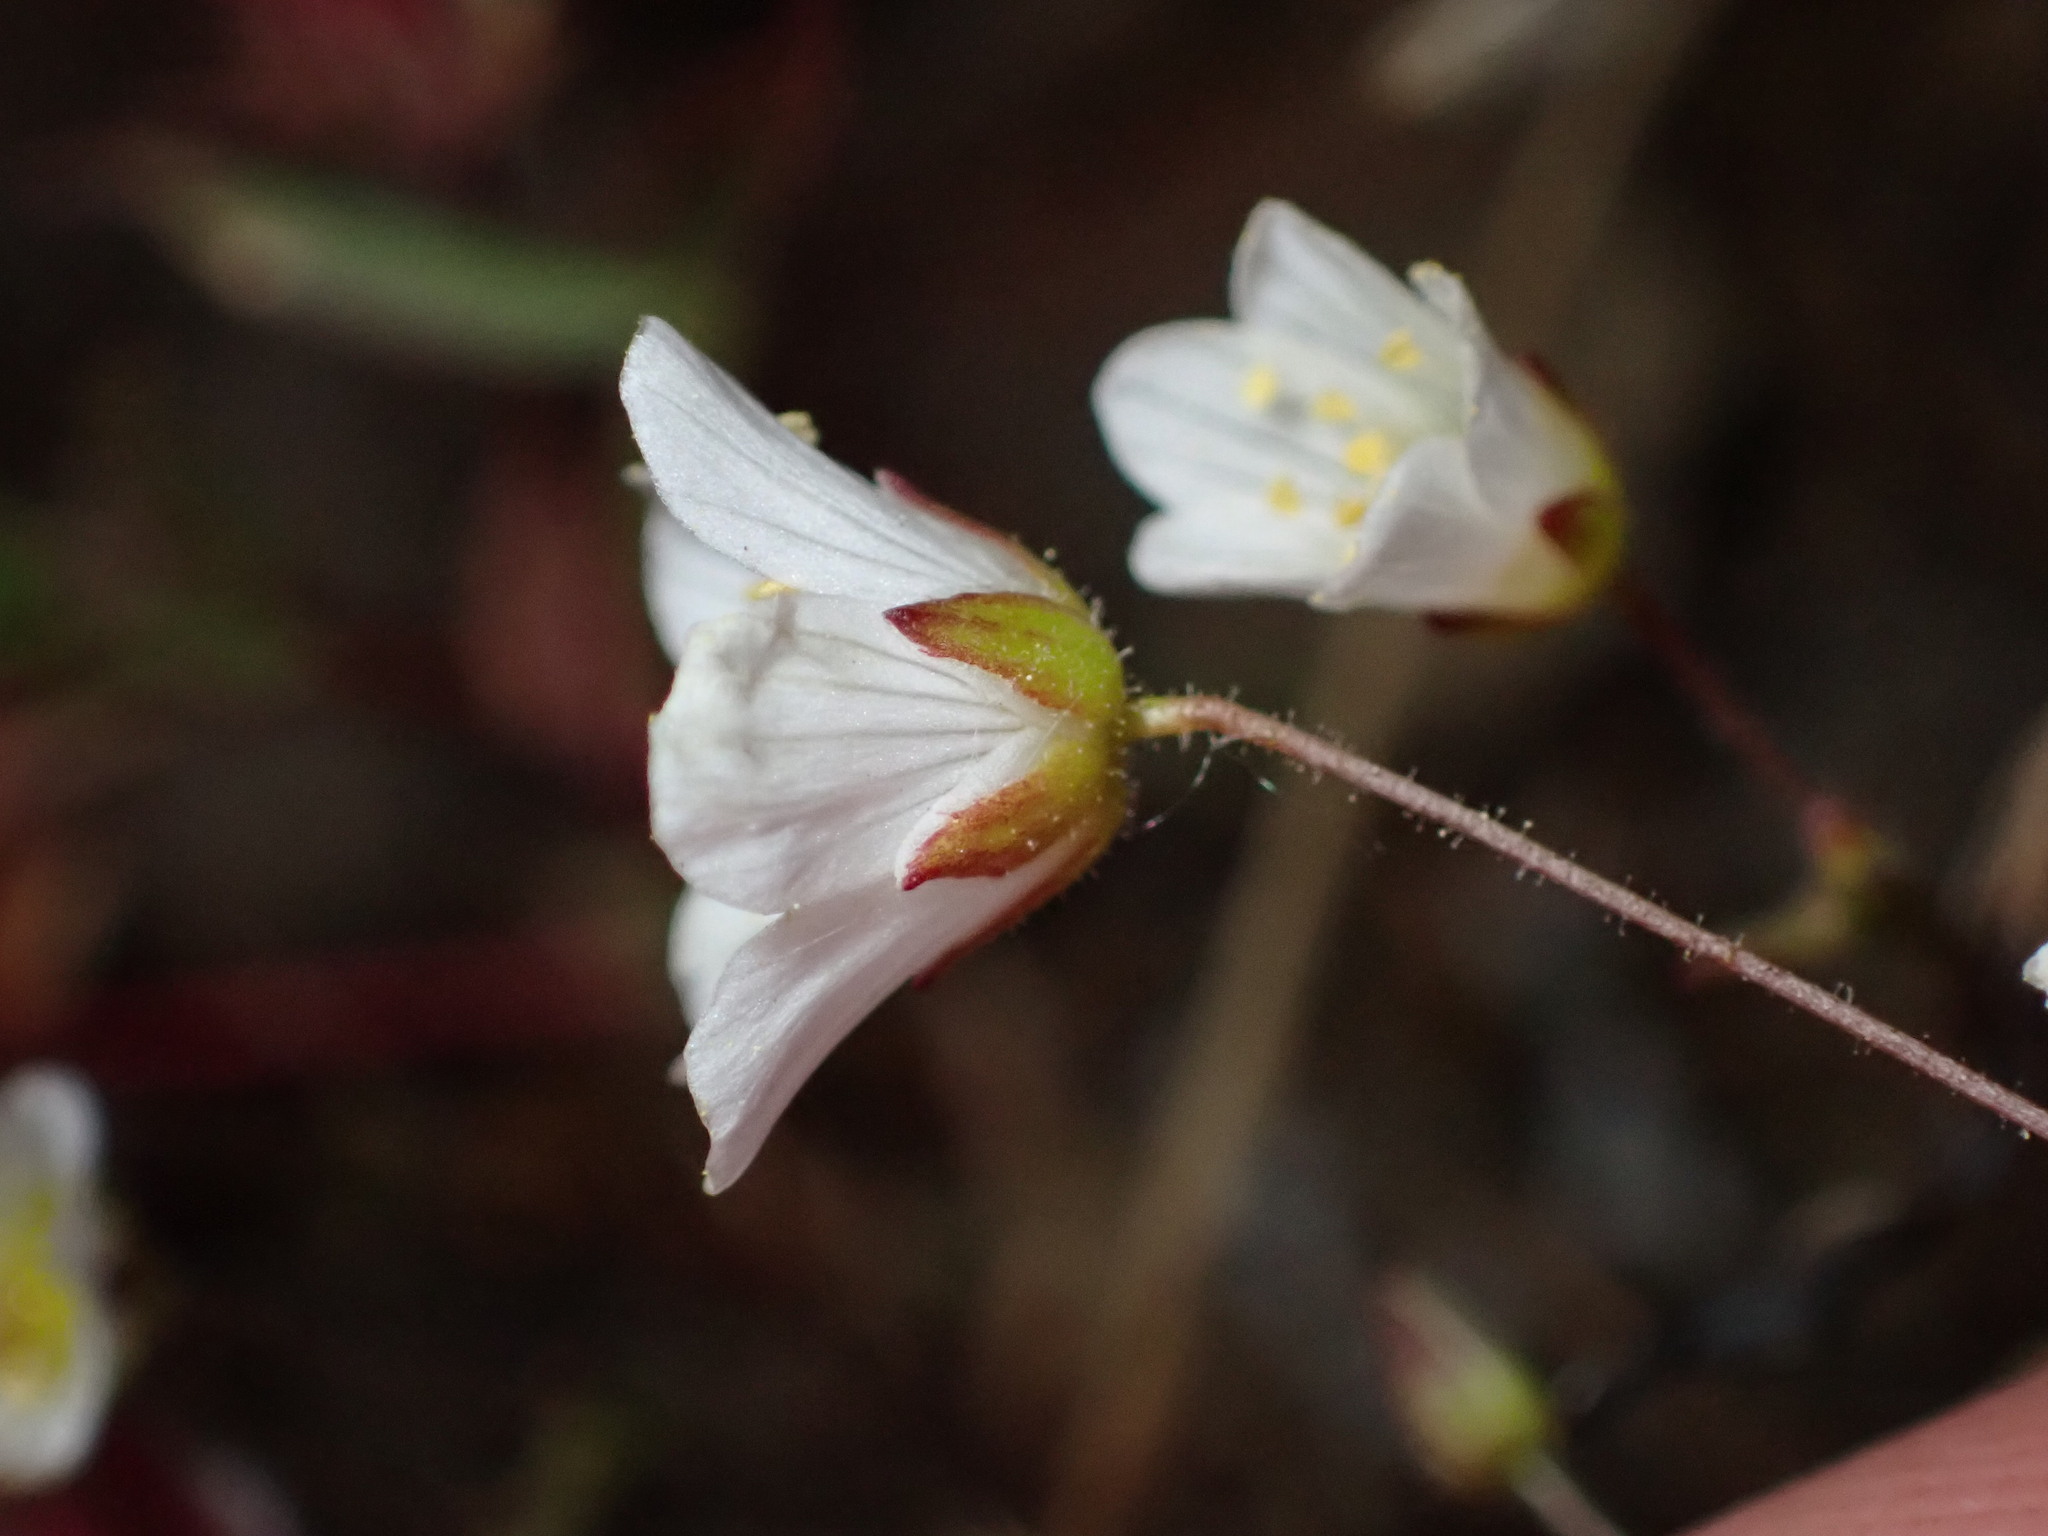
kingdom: Plantae
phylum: Tracheophyta
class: Magnoliopsida
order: Caryophyllales
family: Caryophyllaceae
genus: Sabulina
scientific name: Sabulina douglasii
